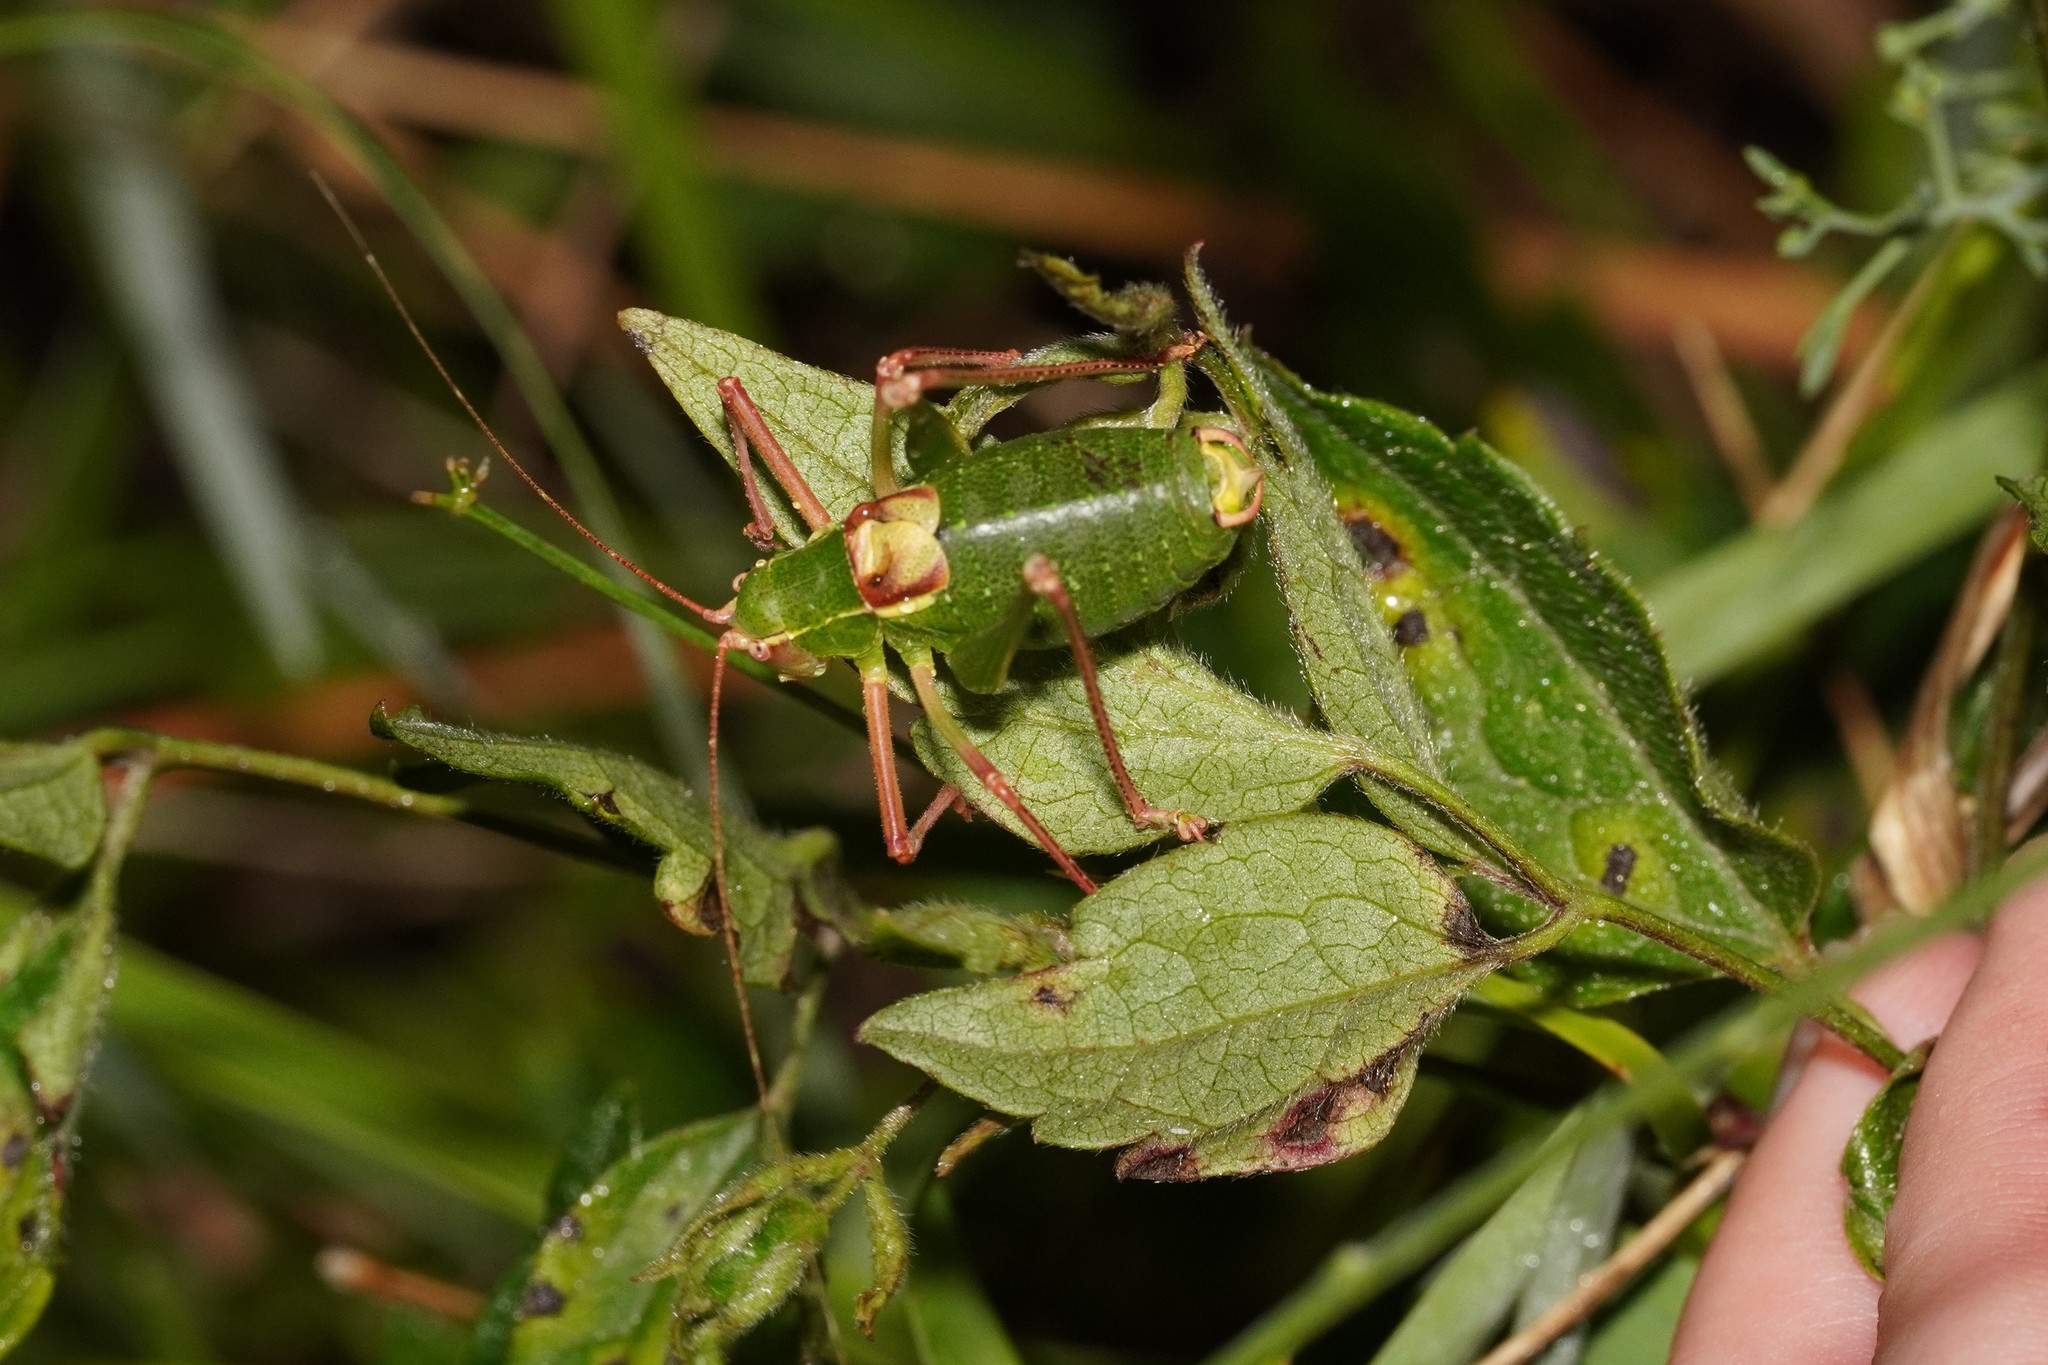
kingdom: Animalia
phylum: Arthropoda
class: Insecta
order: Orthoptera
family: Tettigoniidae
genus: Barbitistes
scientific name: Barbitistes fischeri
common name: Southern saw-tailed bush-cricket
